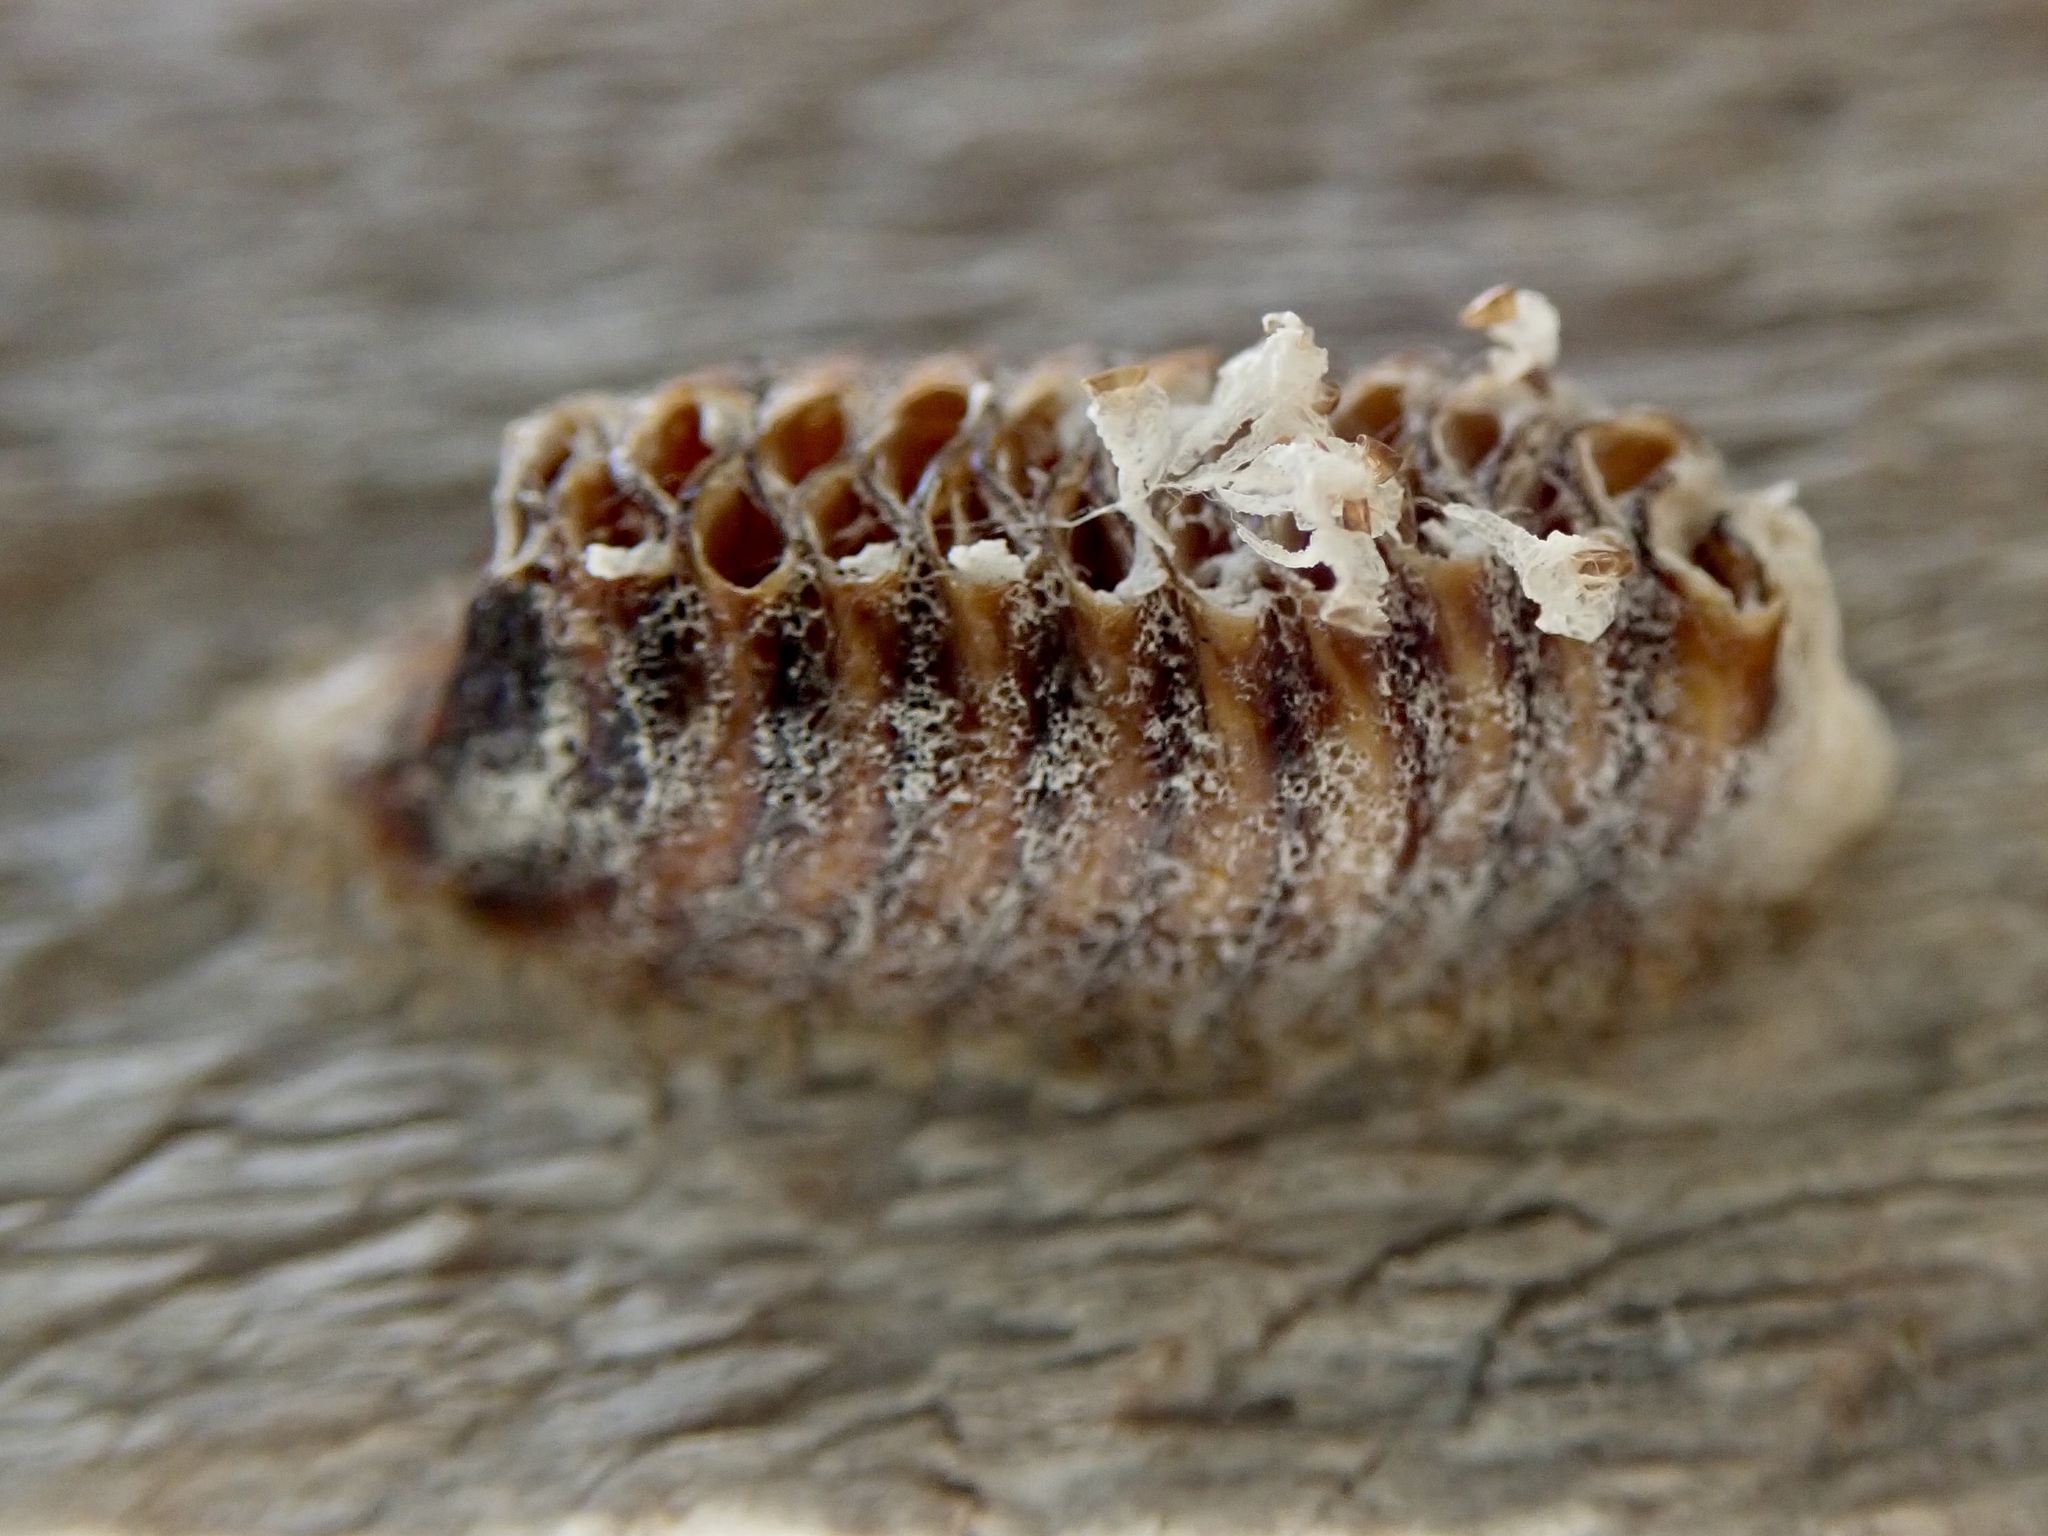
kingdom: Animalia
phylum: Arthropoda
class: Insecta
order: Mantodea
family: Mantidae
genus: Orthodera
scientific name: Orthodera novaezealandiae
